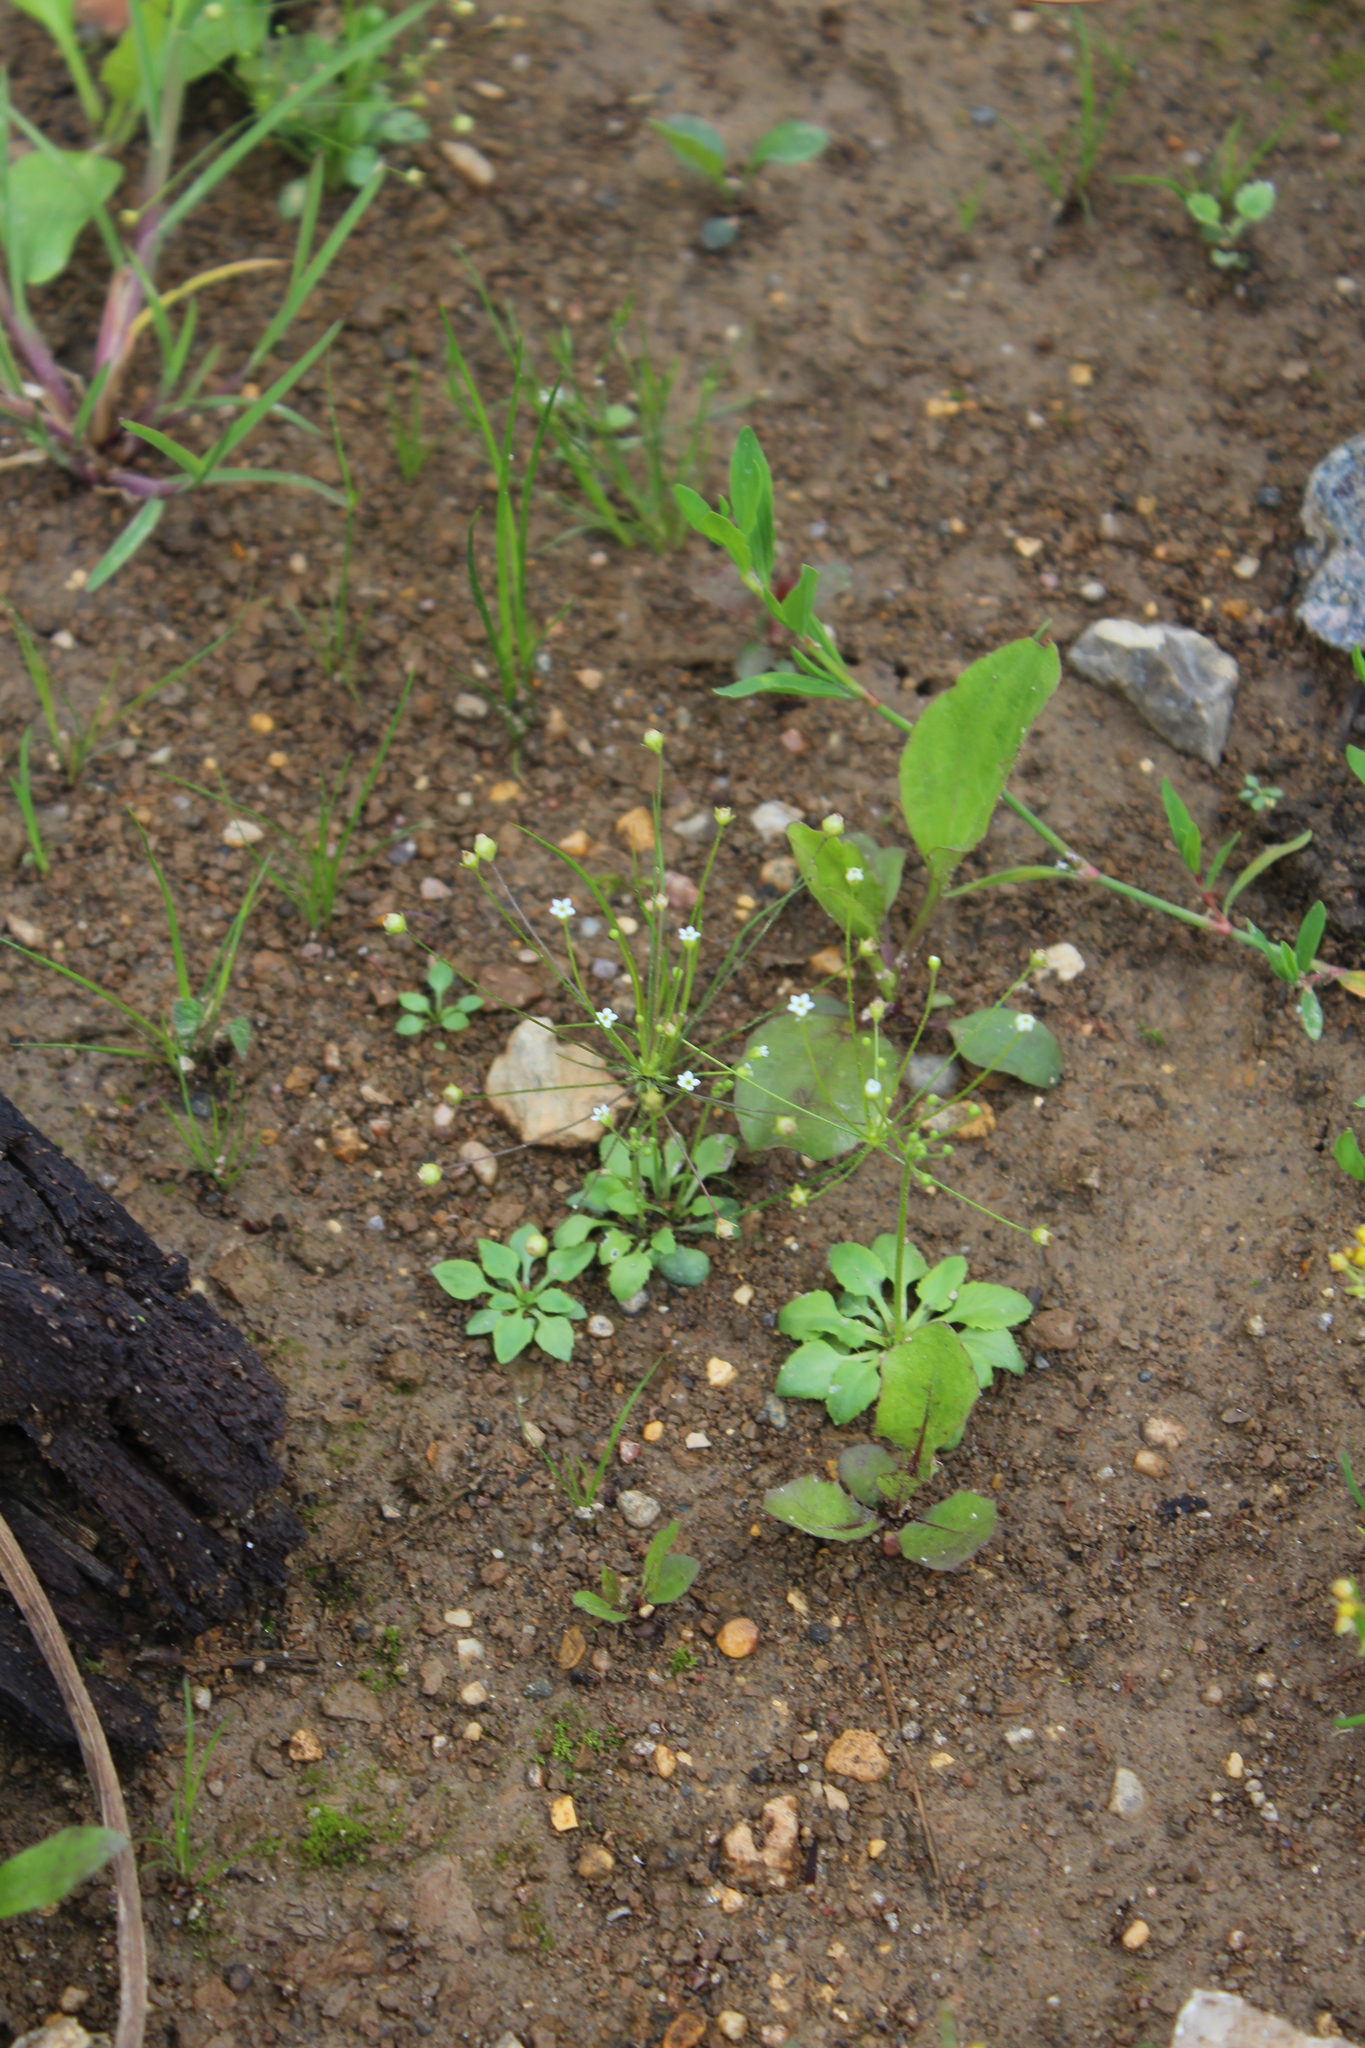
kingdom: Plantae
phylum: Tracheophyta
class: Magnoliopsida
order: Ericales
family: Primulaceae
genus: Androsace
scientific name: Androsace filiformis
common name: Filiform rock jasmine
